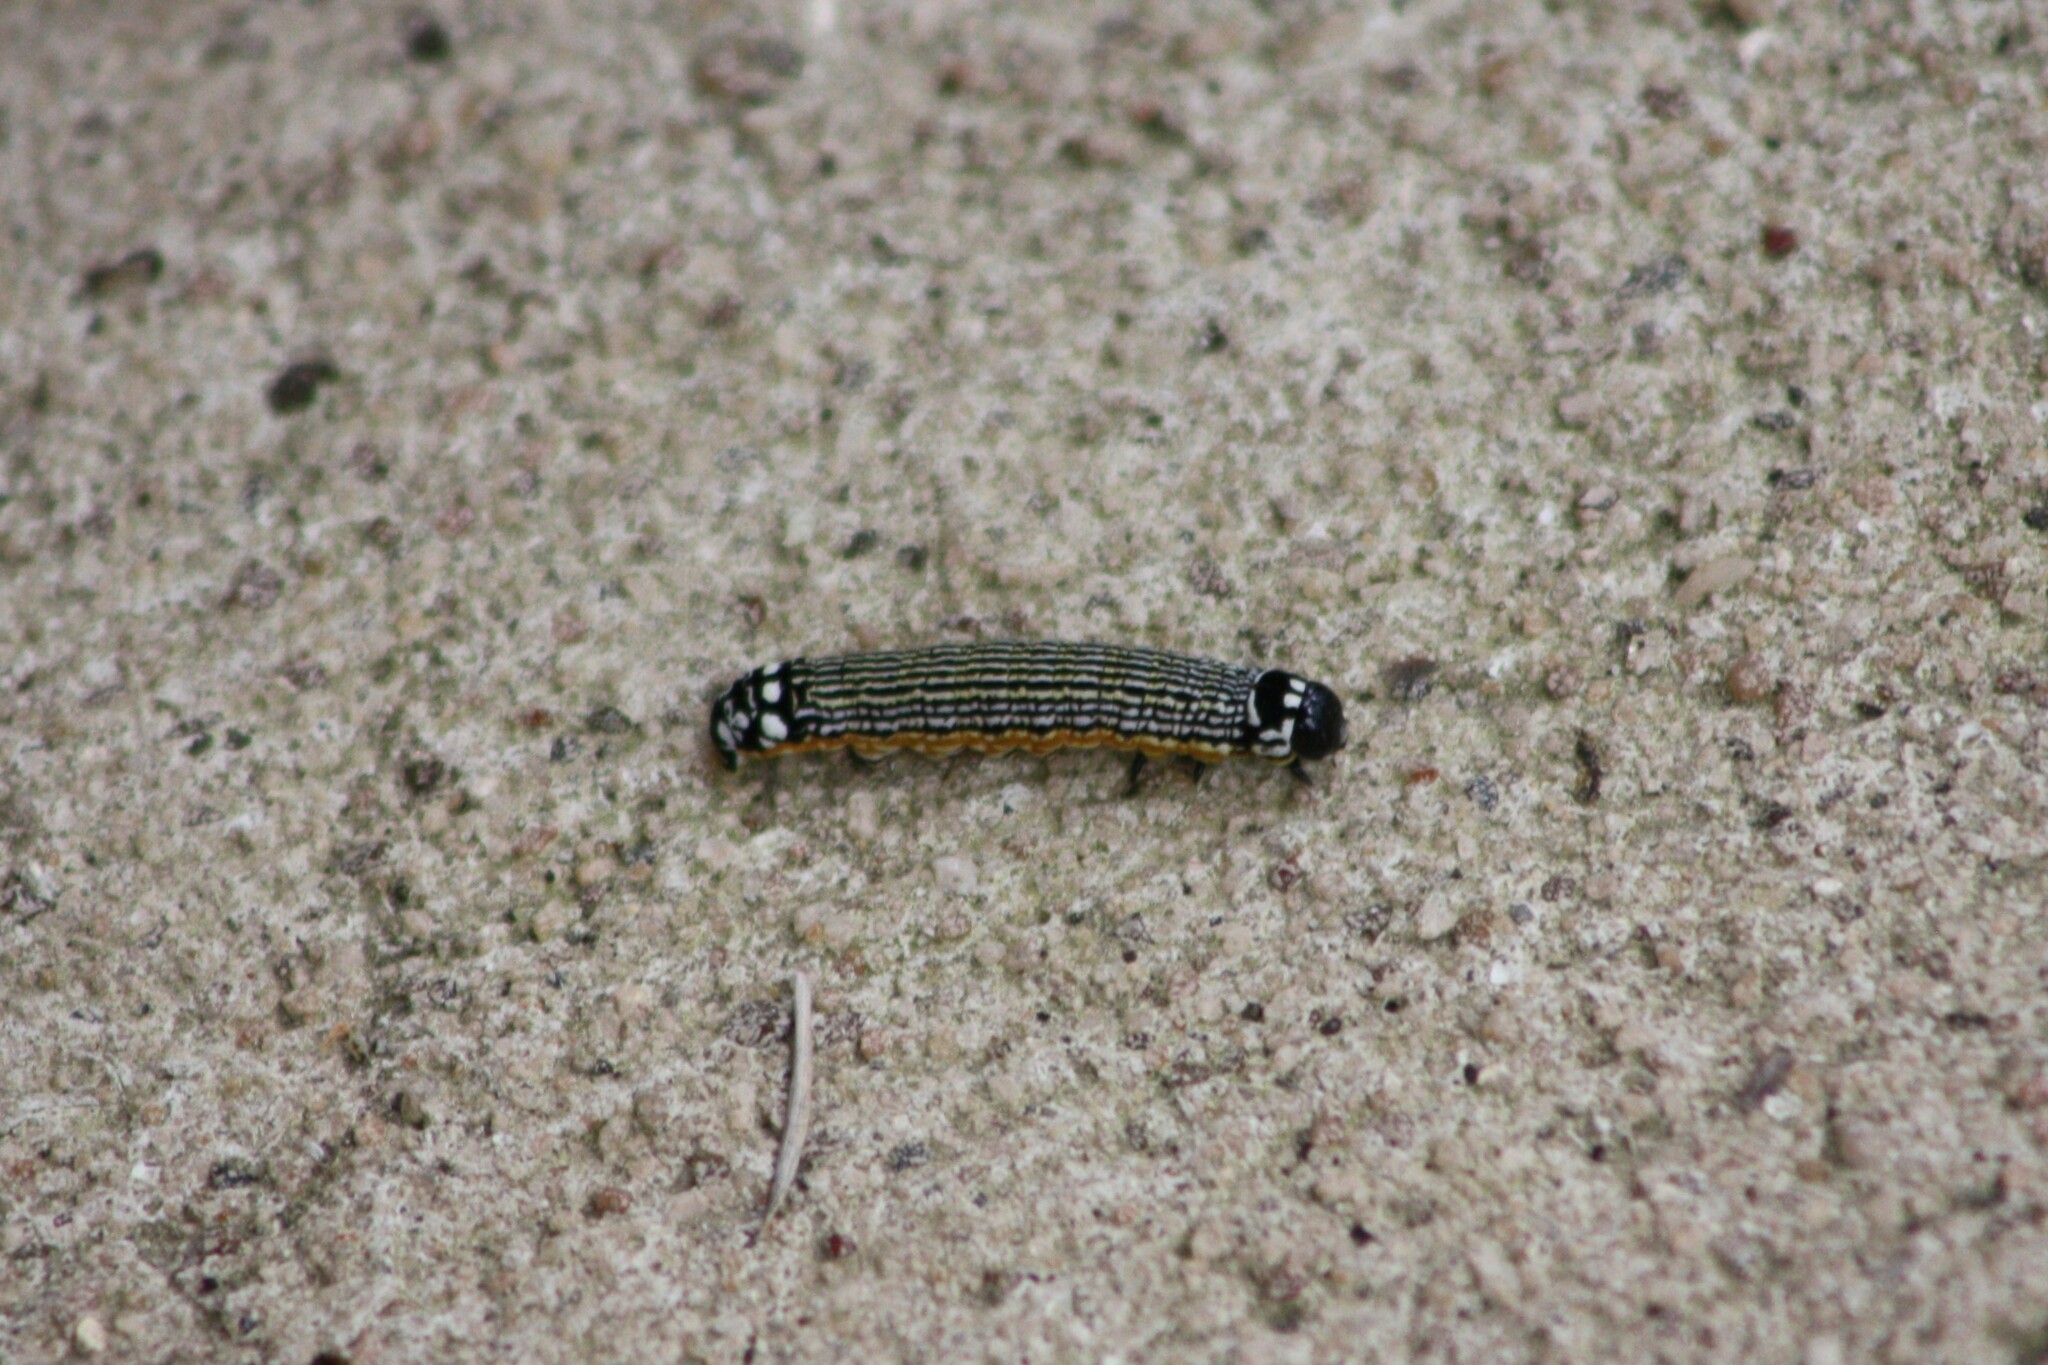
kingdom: Animalia
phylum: Arthropoda
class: Insecta
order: Lepidoptera
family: Noctuidae
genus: Phosphila
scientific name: Phosphila turbulenta
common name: Turbulent phosphila moth
